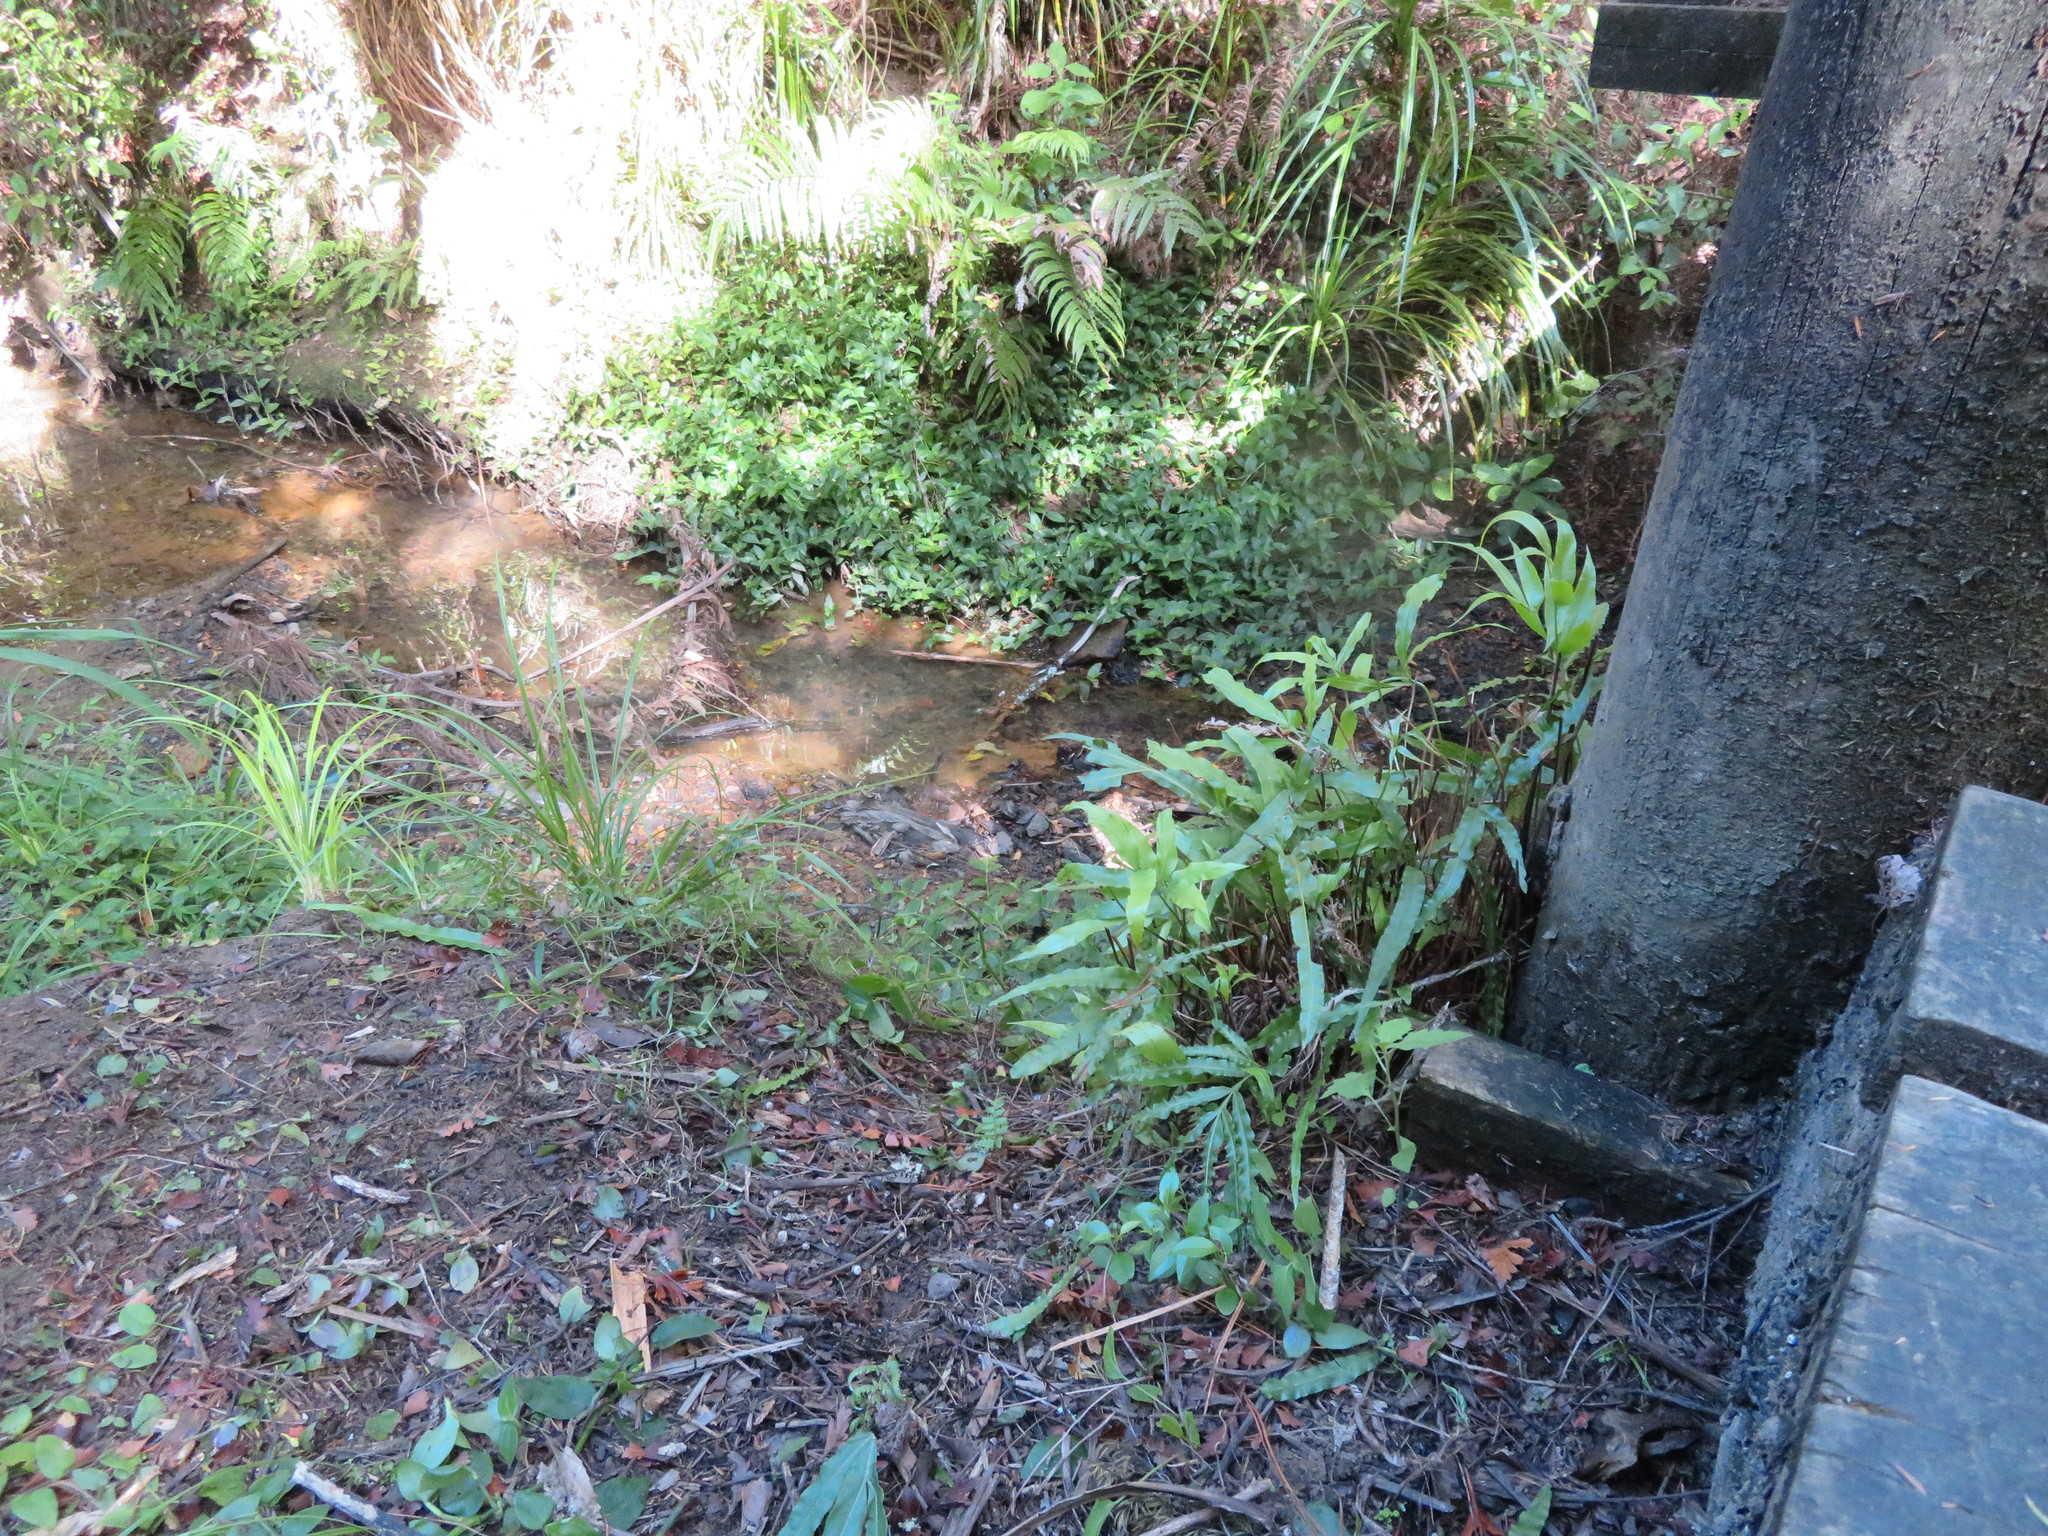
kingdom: Plantae
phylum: Tracheophyta
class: Polypodiopsida
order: Polypodiales
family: Pteridaceae
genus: Pteris
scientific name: Pteris cretica
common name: Ribbon fern
